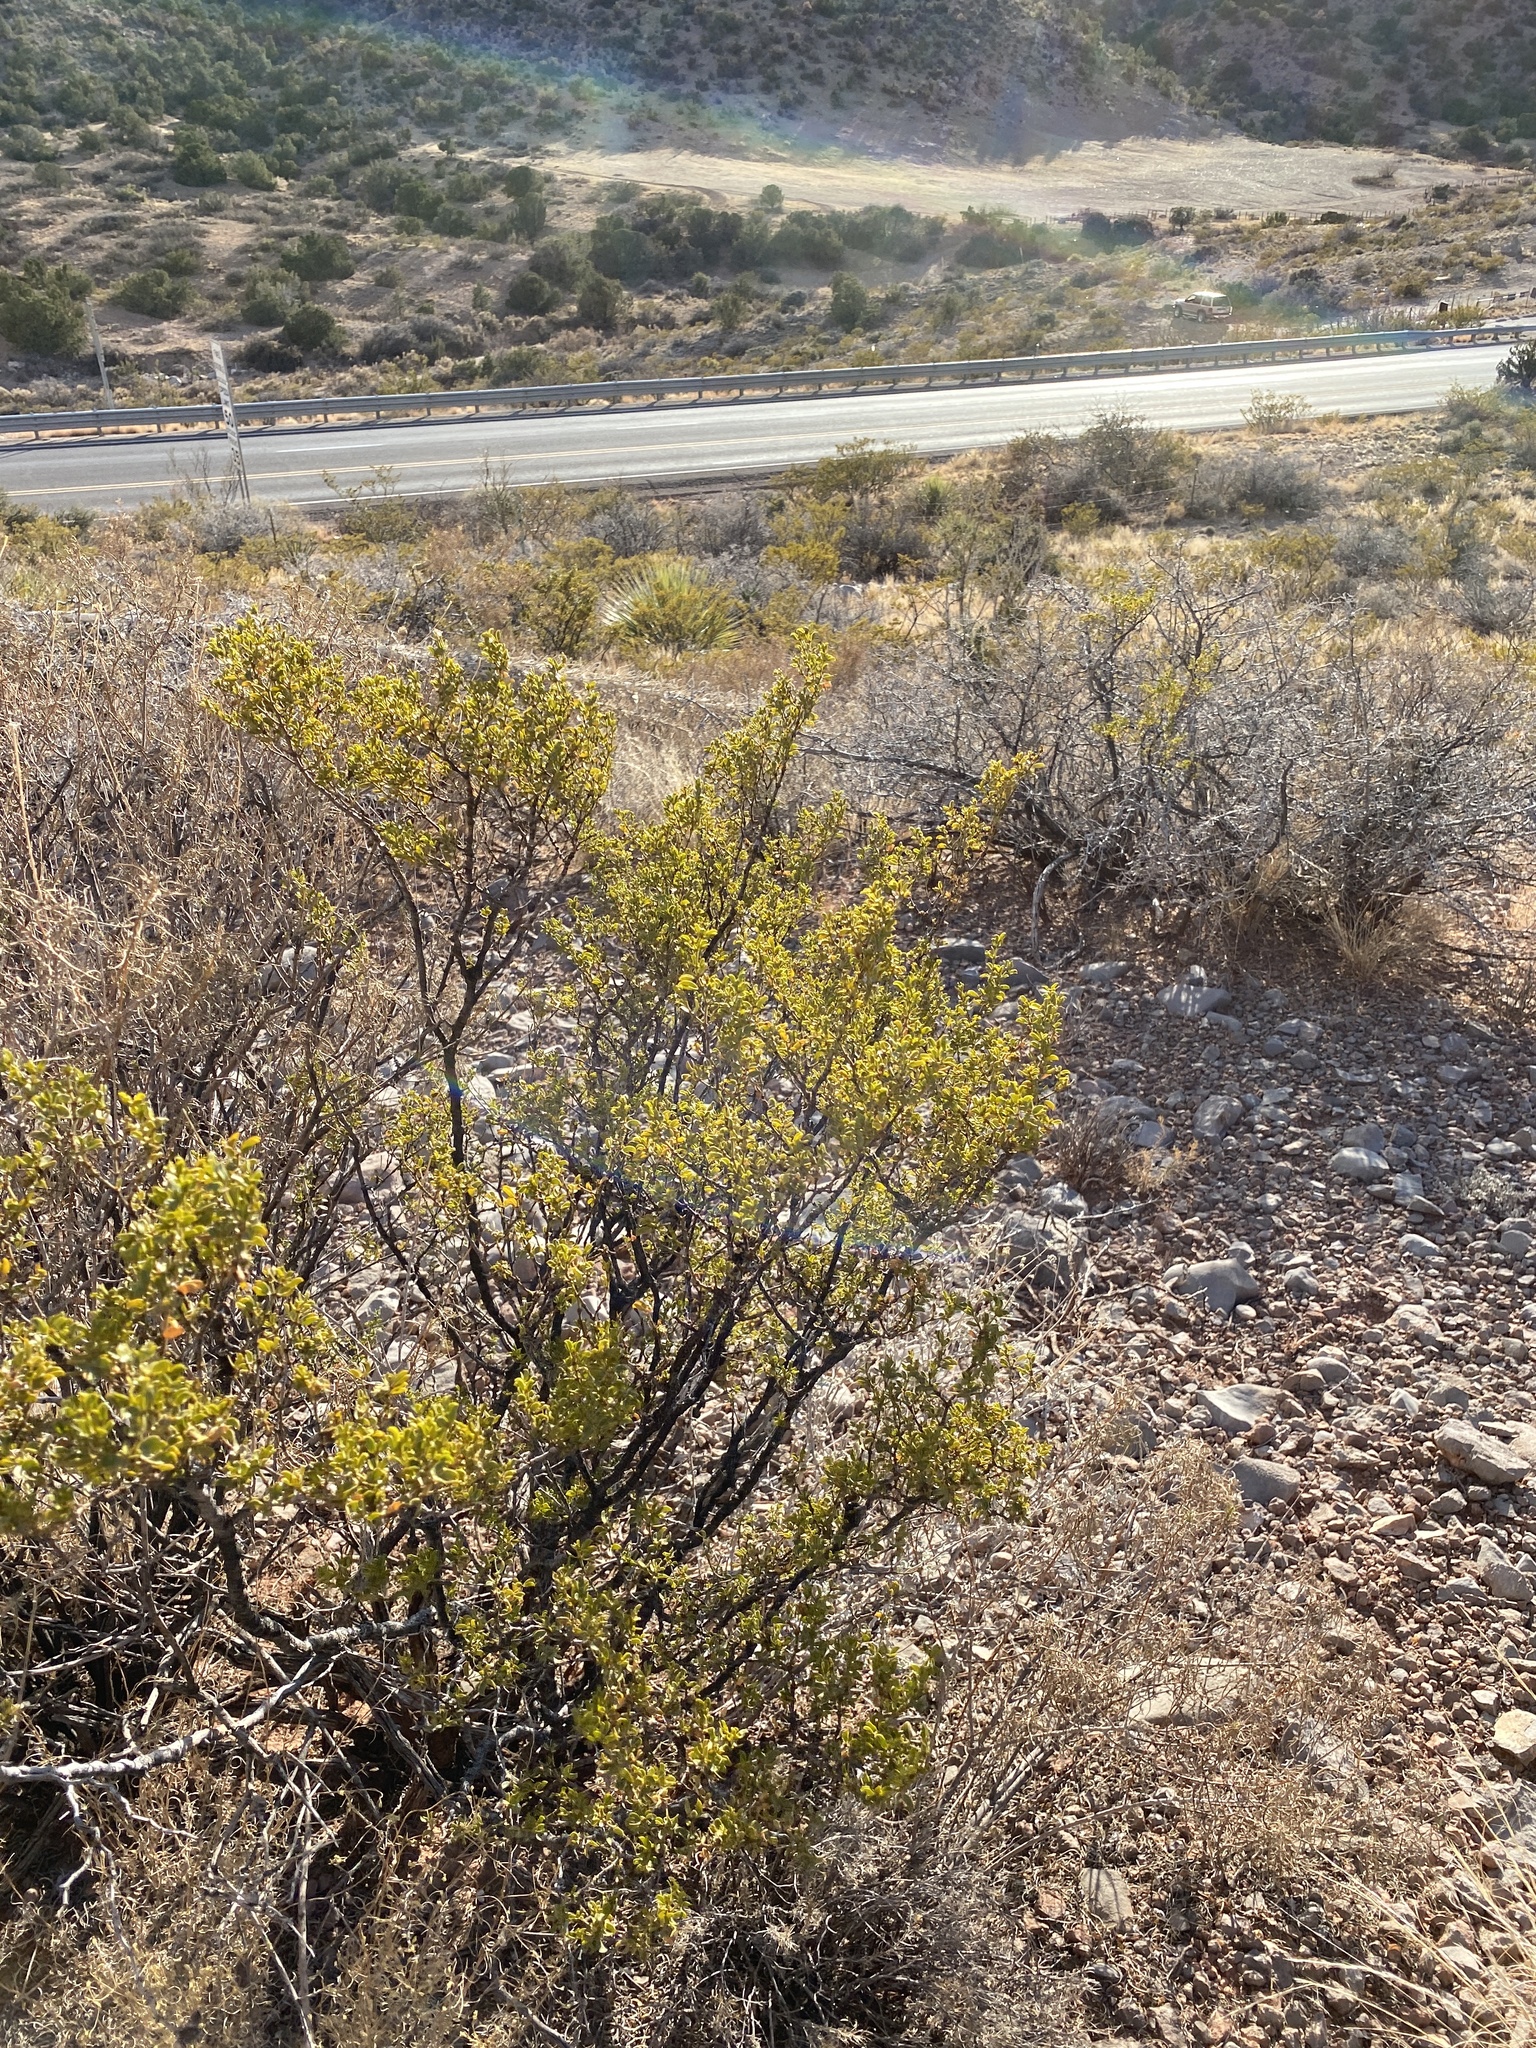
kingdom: Plantae
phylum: Tracheophyta
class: Magnoliopsida
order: Zygophyllales
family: Zygophyllaceae
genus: Larrea
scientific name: Larrea tridentata
